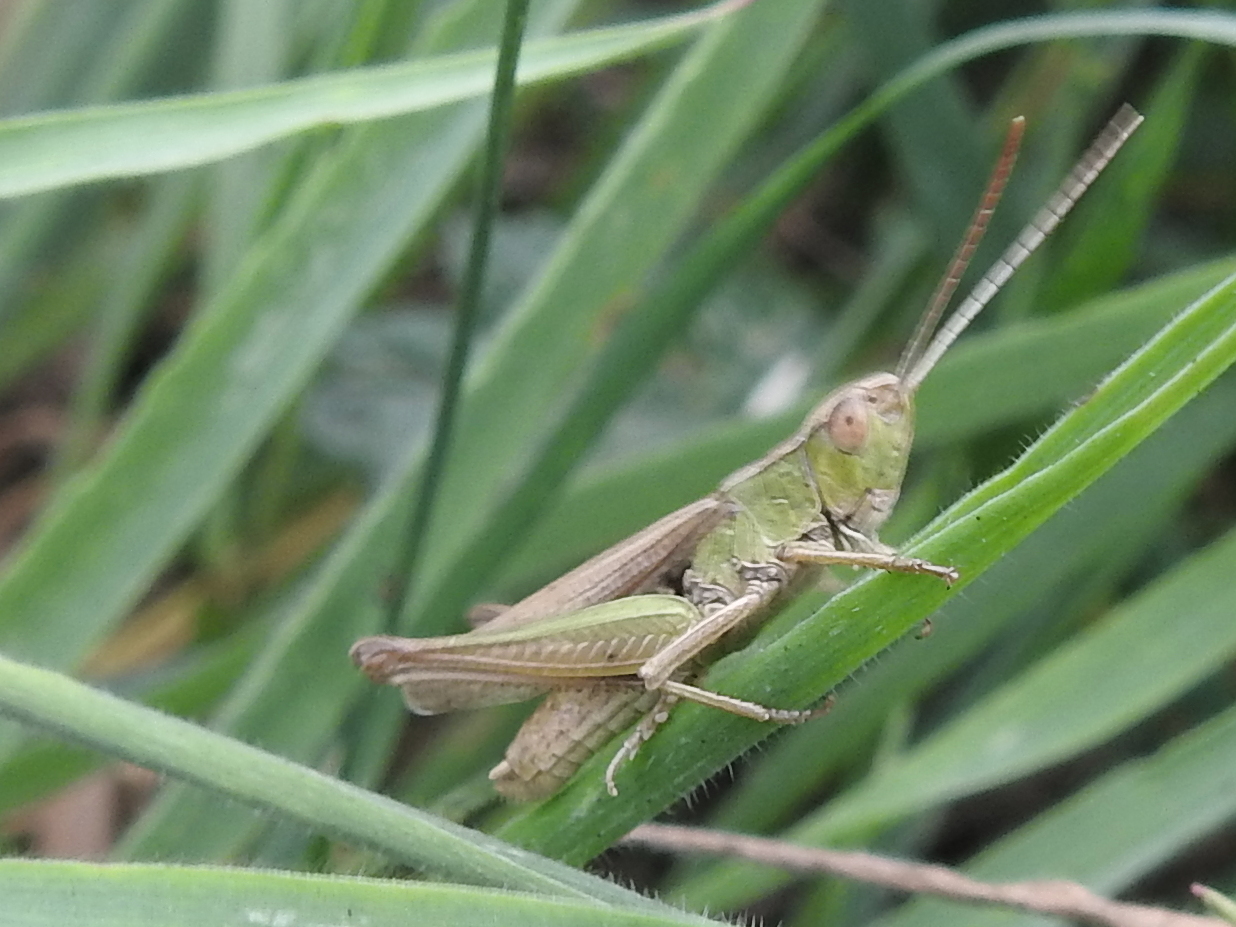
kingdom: Animalia
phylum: Arthropoda
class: Insecta
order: Orthoptera
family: Acrididae
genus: Chorthippus
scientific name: Chorthippus albomarginatus
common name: Lesser marsh grasshopper
